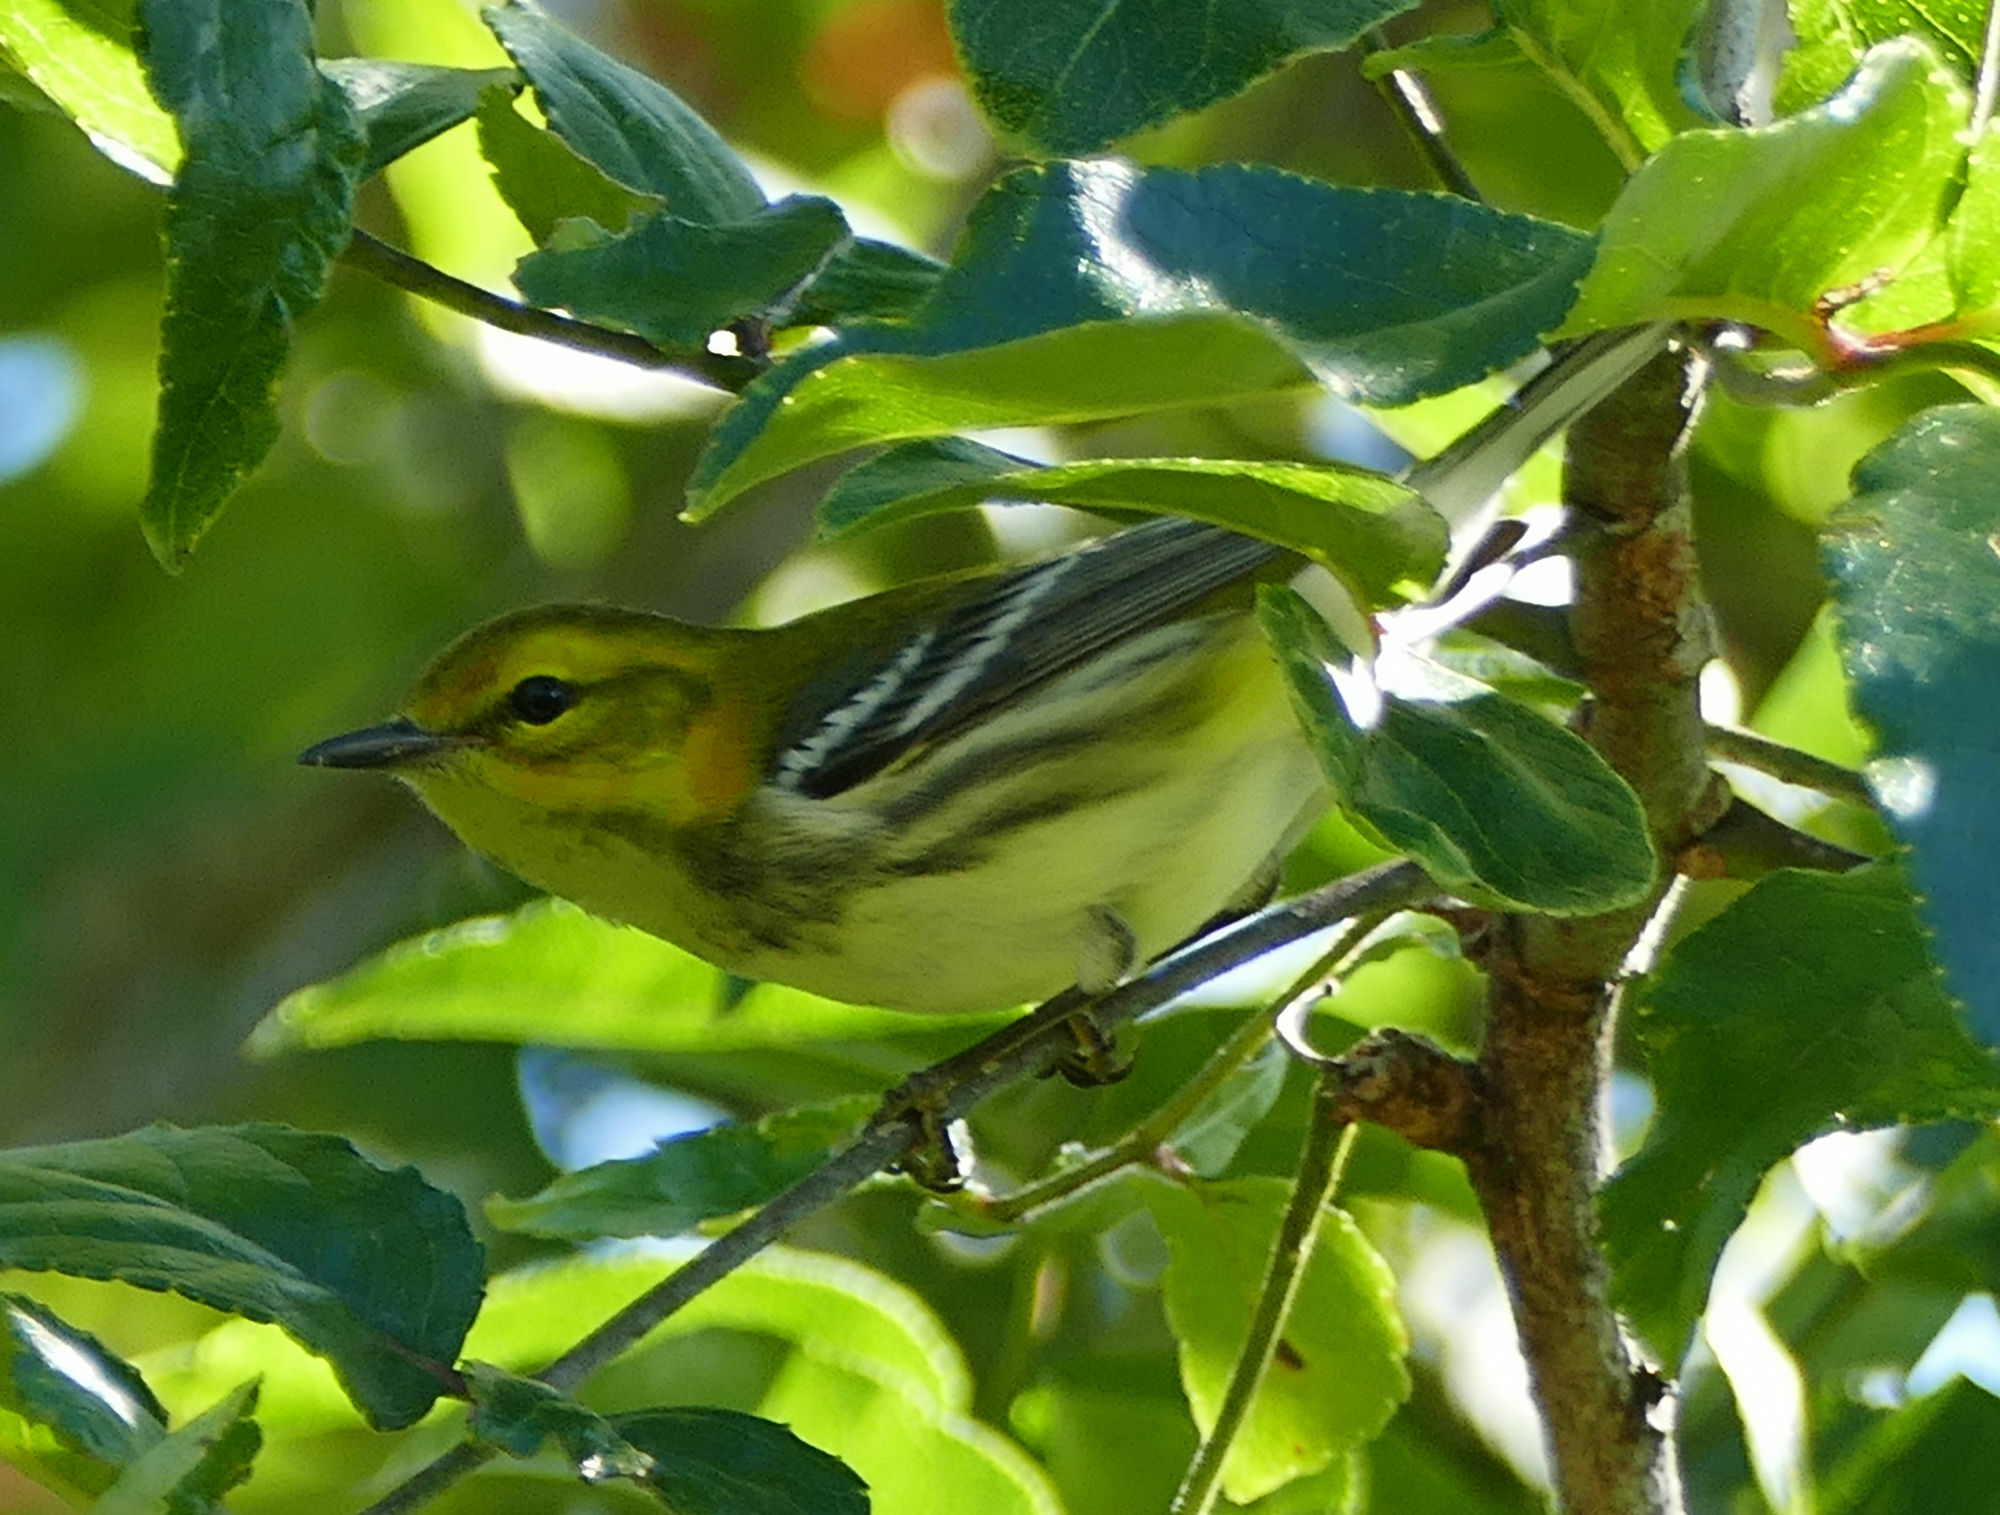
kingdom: Animalia
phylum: Chordata
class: Aves
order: Passeriformes
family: Parulidae
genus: Setophaga
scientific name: Setophaga virens
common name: Black-throated green warbler
